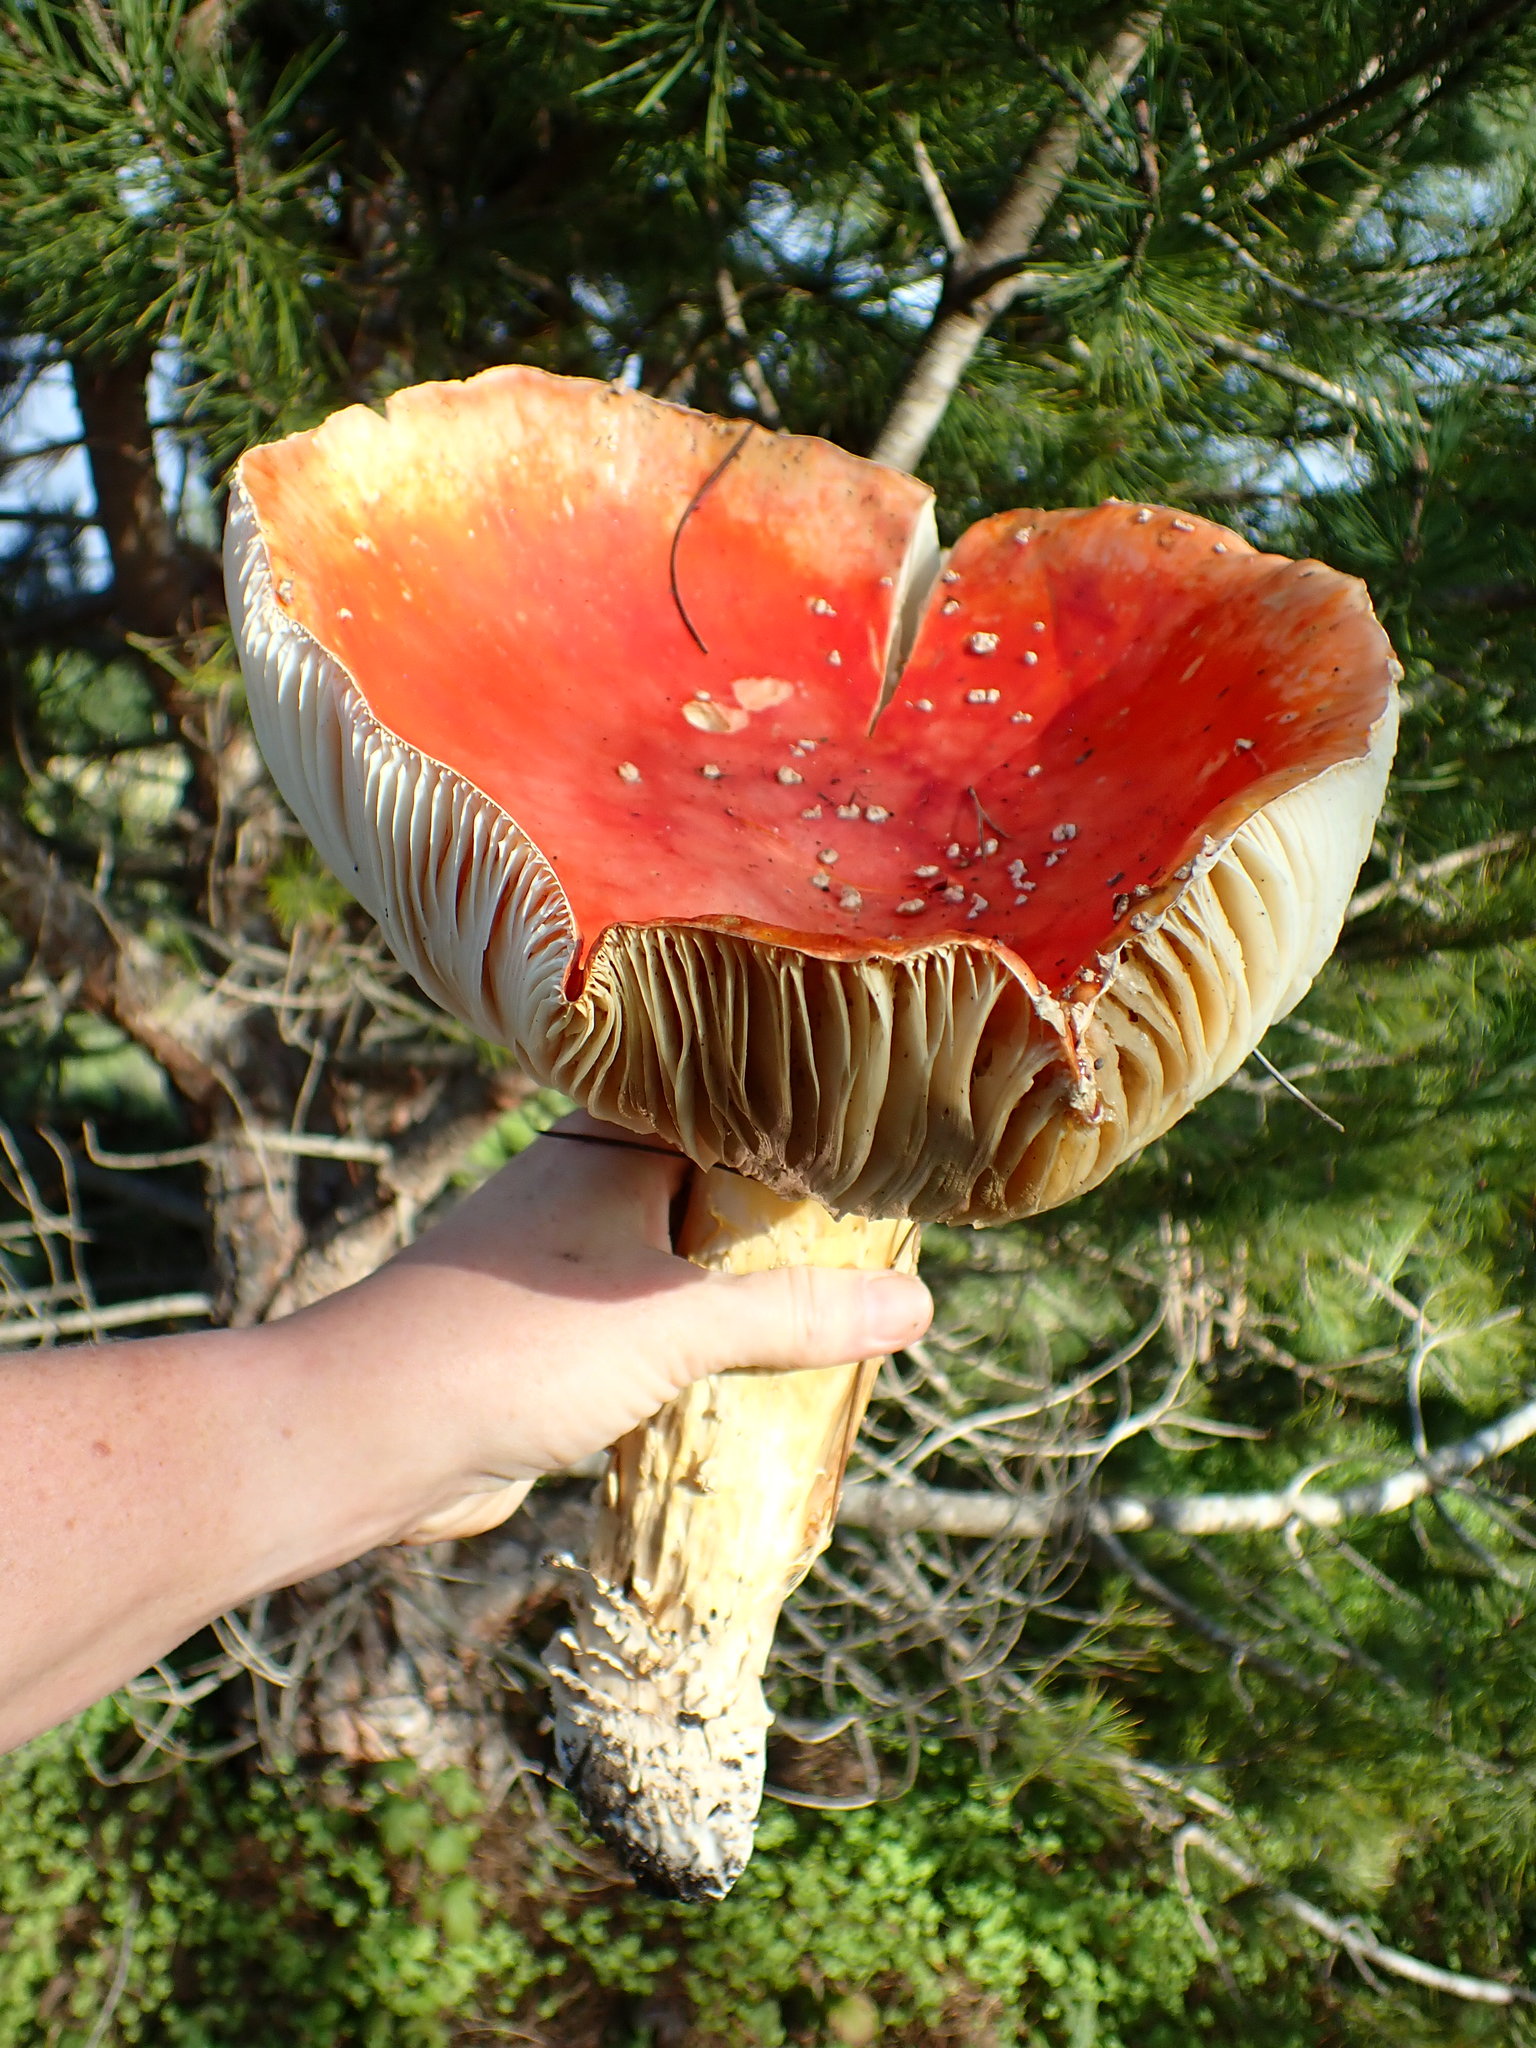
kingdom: Fungi
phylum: Basidiomycota
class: Agaricomycetes
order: Agaricales
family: Amanitaceae
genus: Amanita
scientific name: Amanita muscaria
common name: Fly agaric
